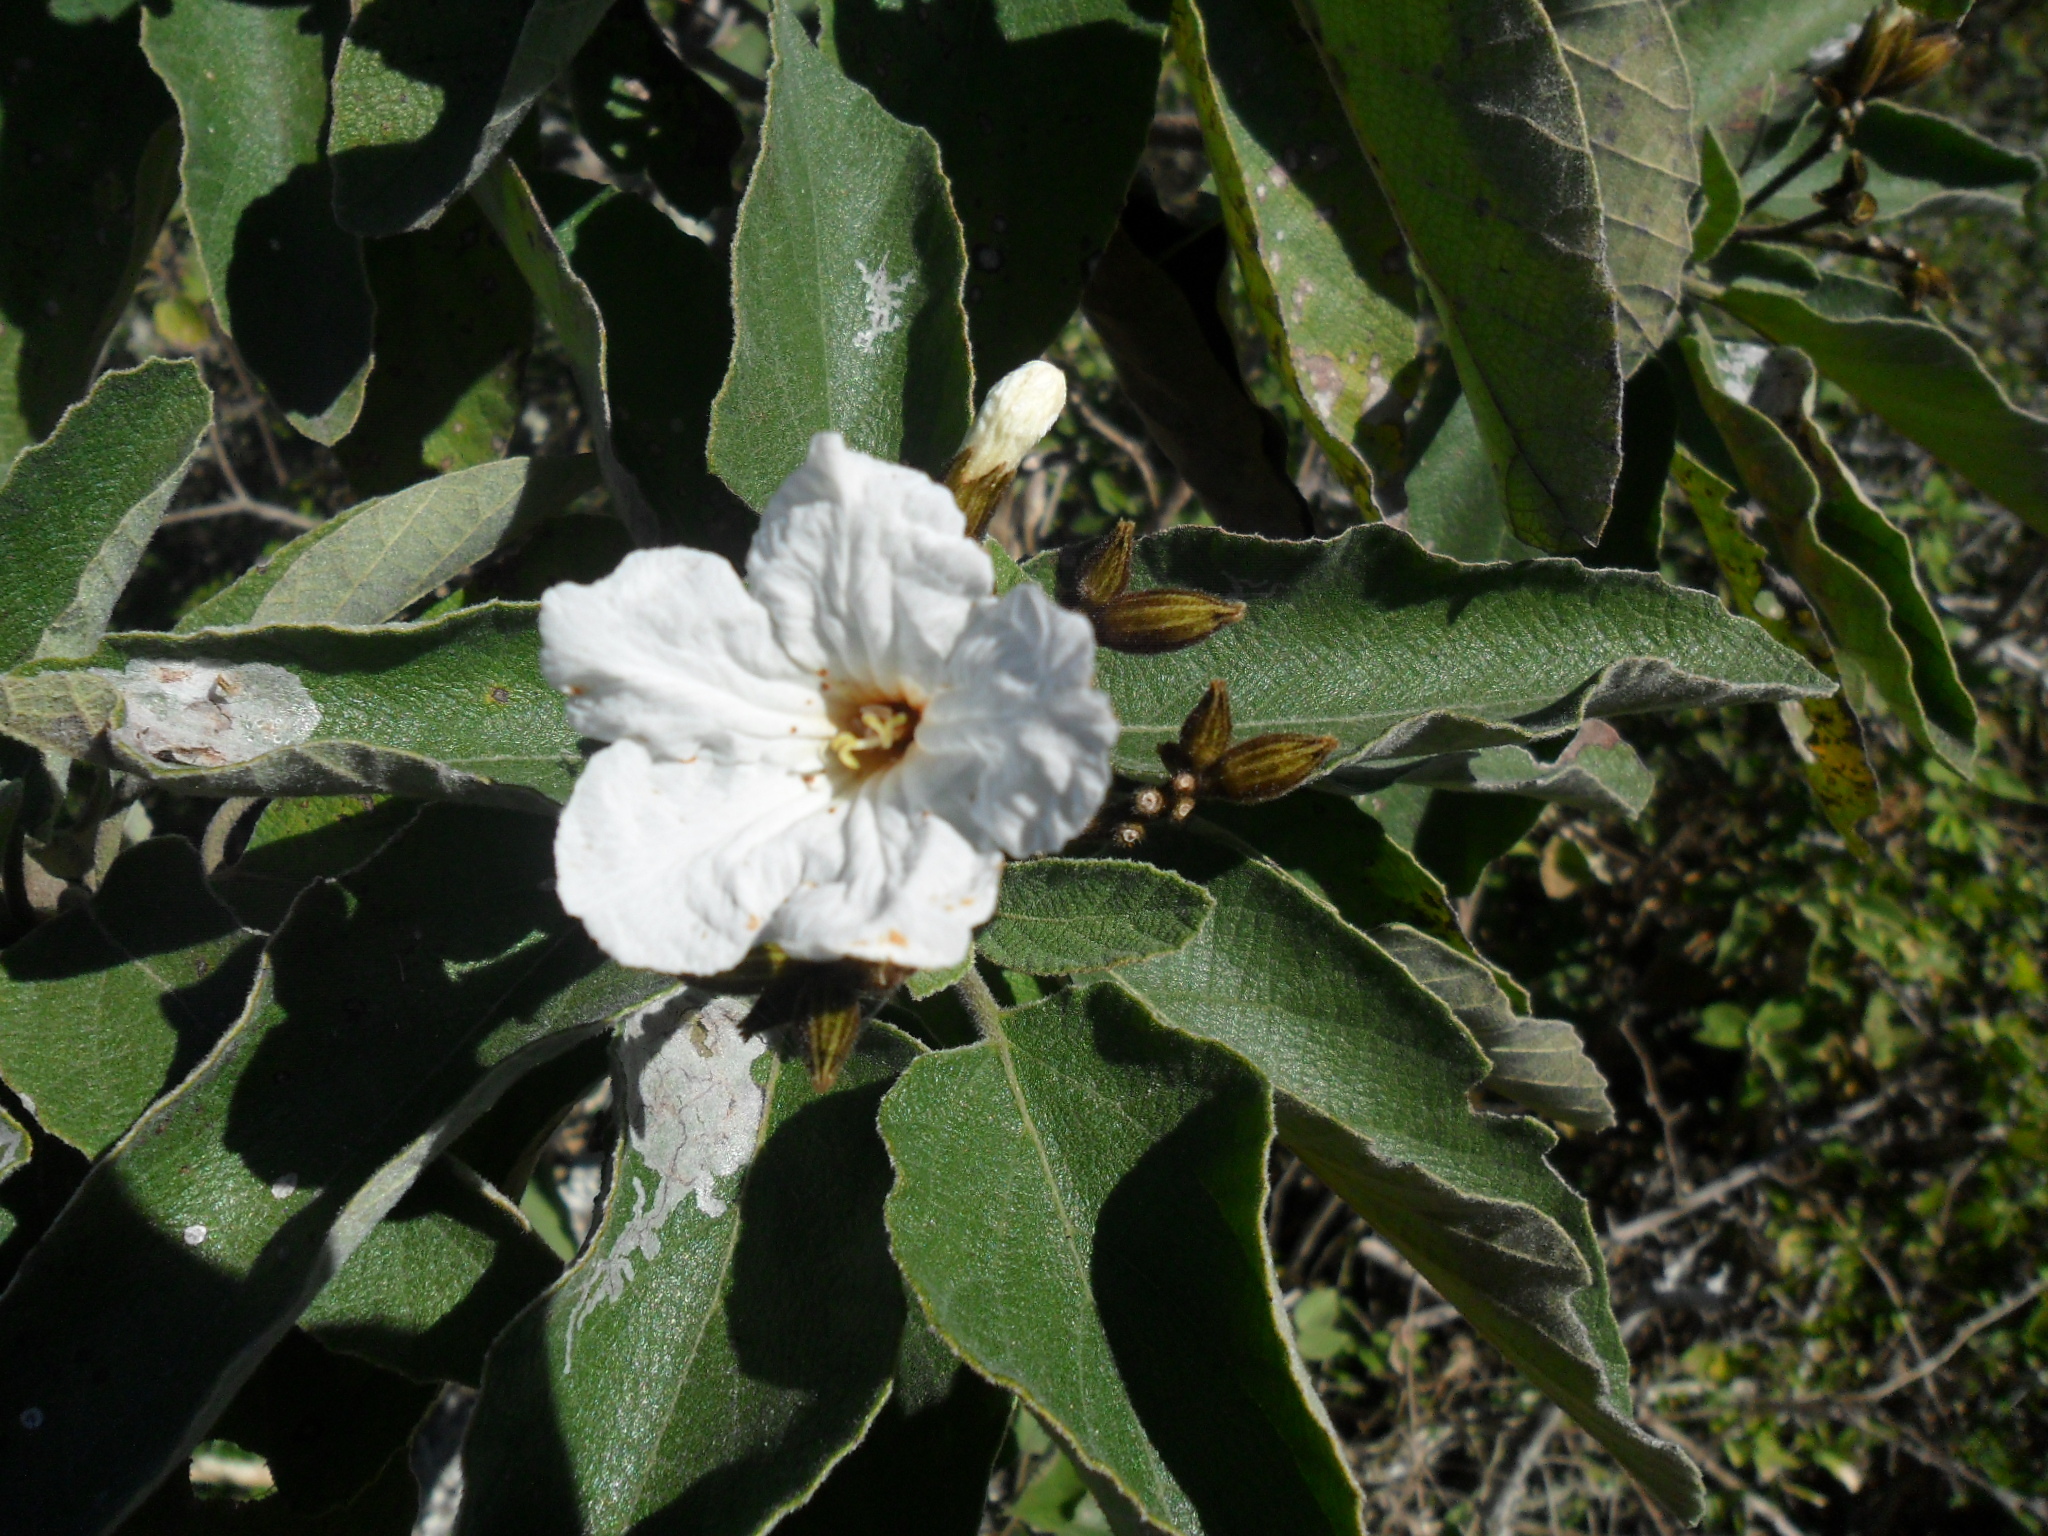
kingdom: Plantae
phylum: Tracheophyta
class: Magnoliopsida
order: Boraginales
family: Cordiaceae
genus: Cordia
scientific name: Cordia boissieri
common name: Mexican-olive
